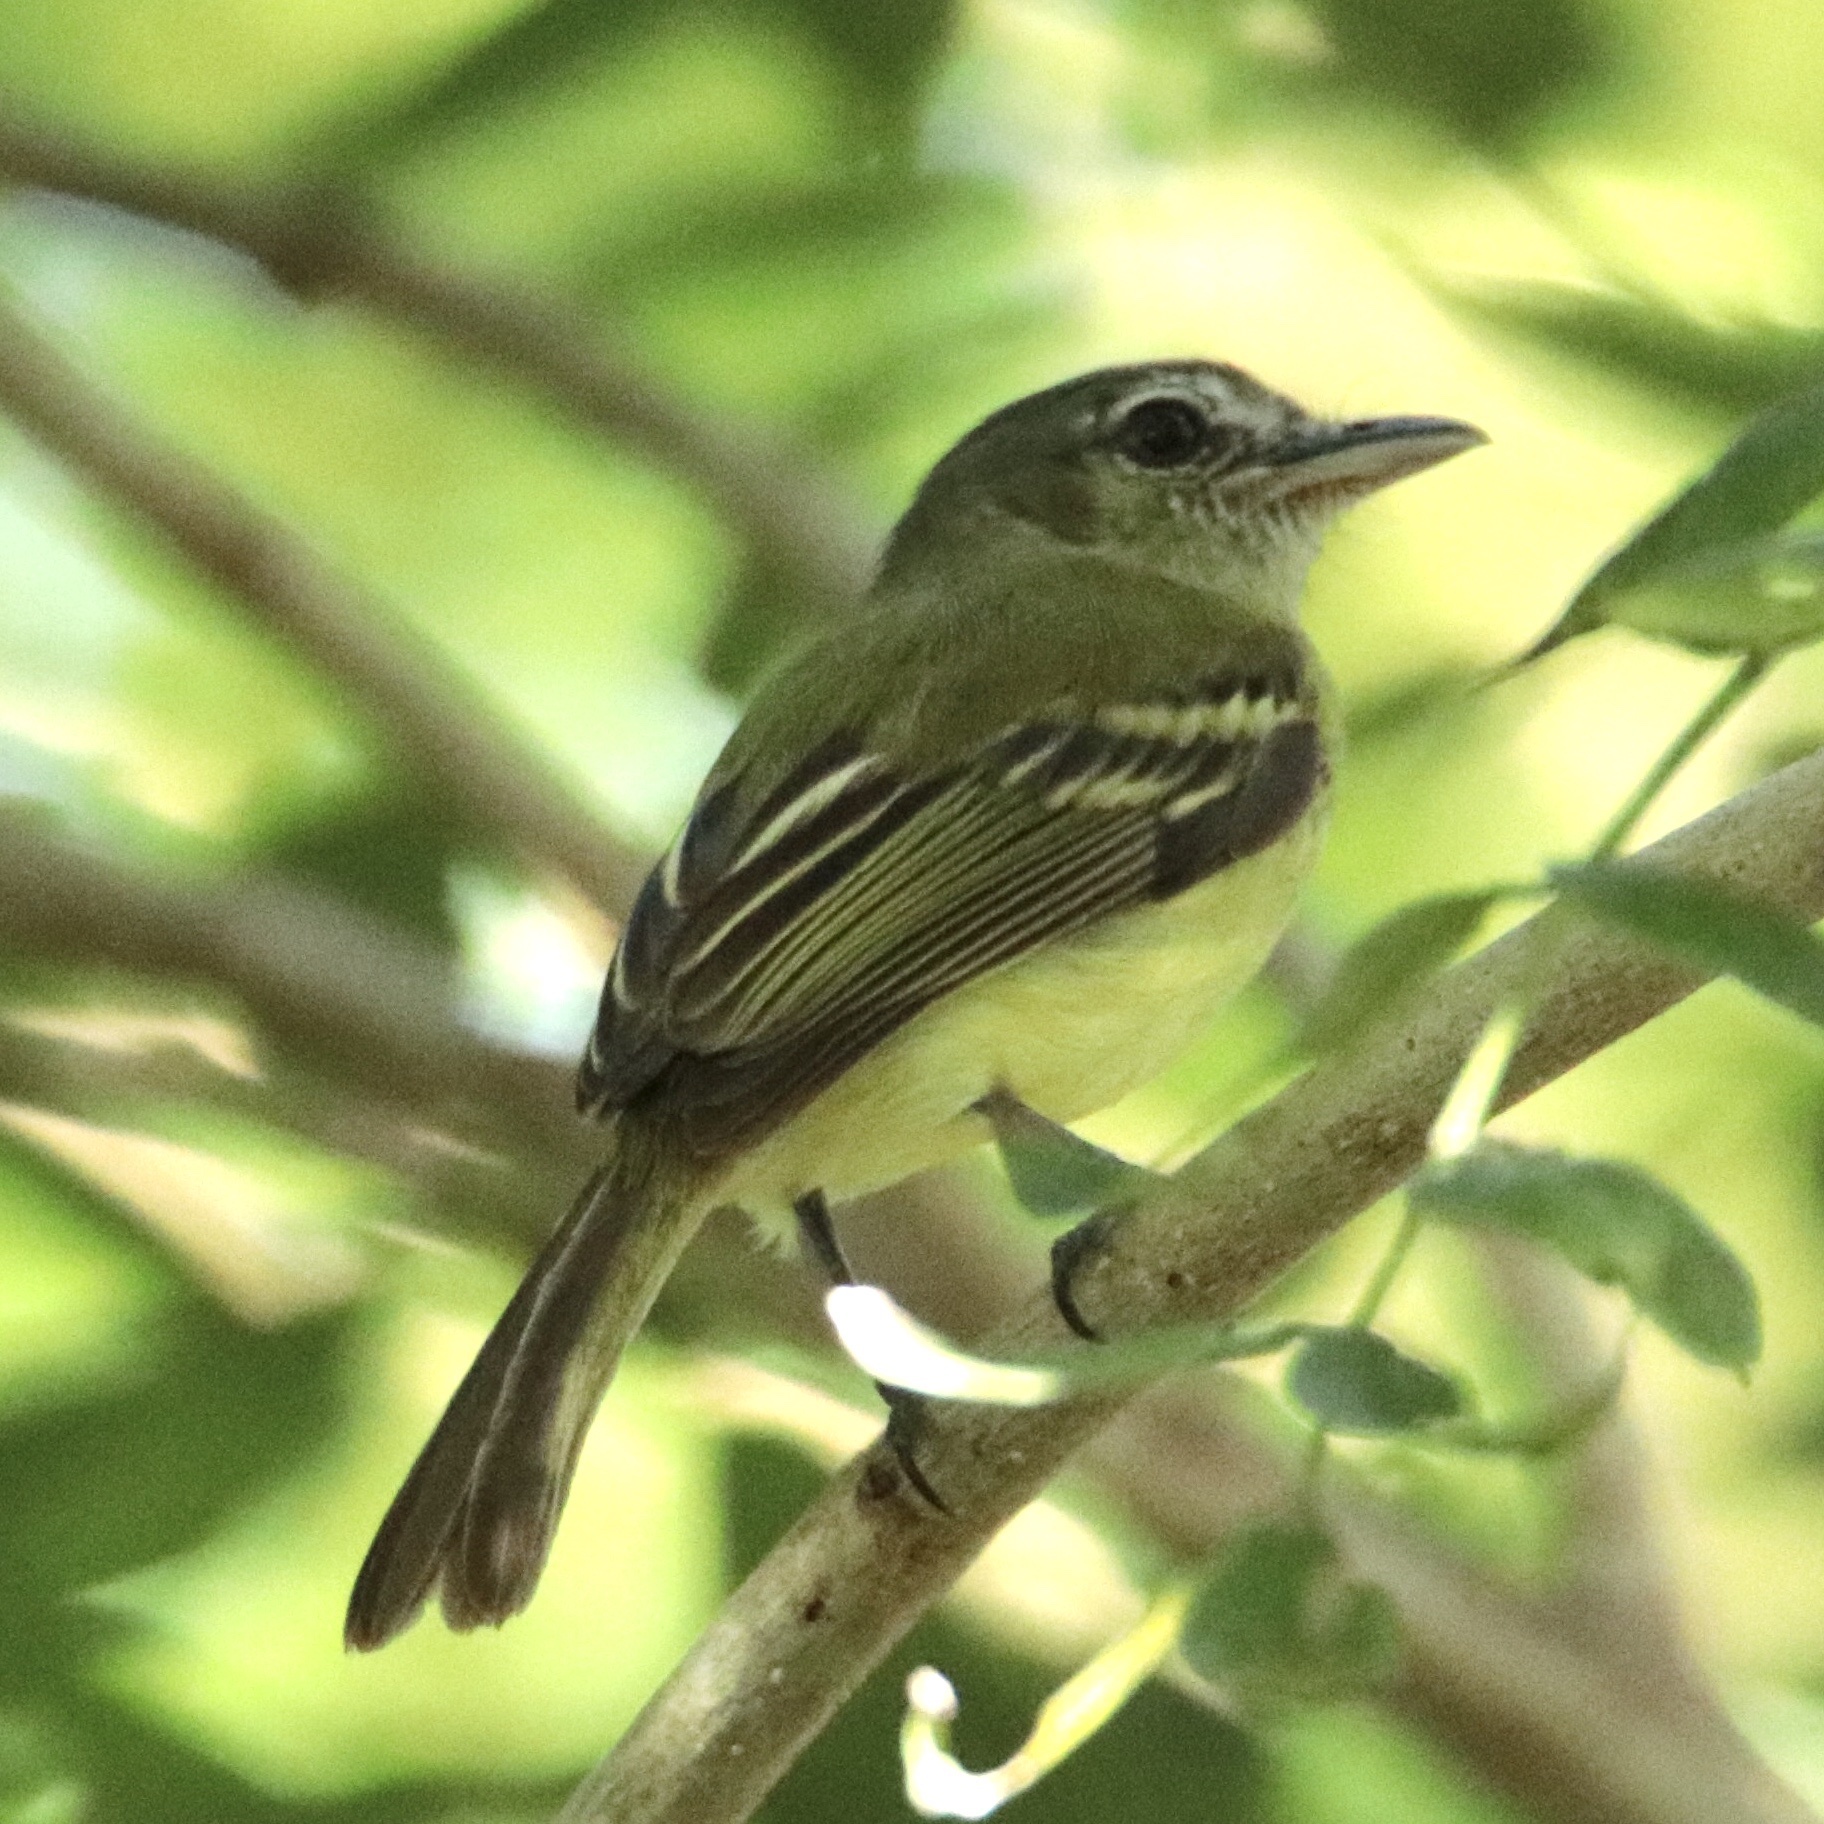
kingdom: Animalia
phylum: Chordata
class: Aves
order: Passeriformes
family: Tyrannidae
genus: Tolmomyias
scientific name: Tolmomyias sulphurescens
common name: Yellow-olive flycatcher
